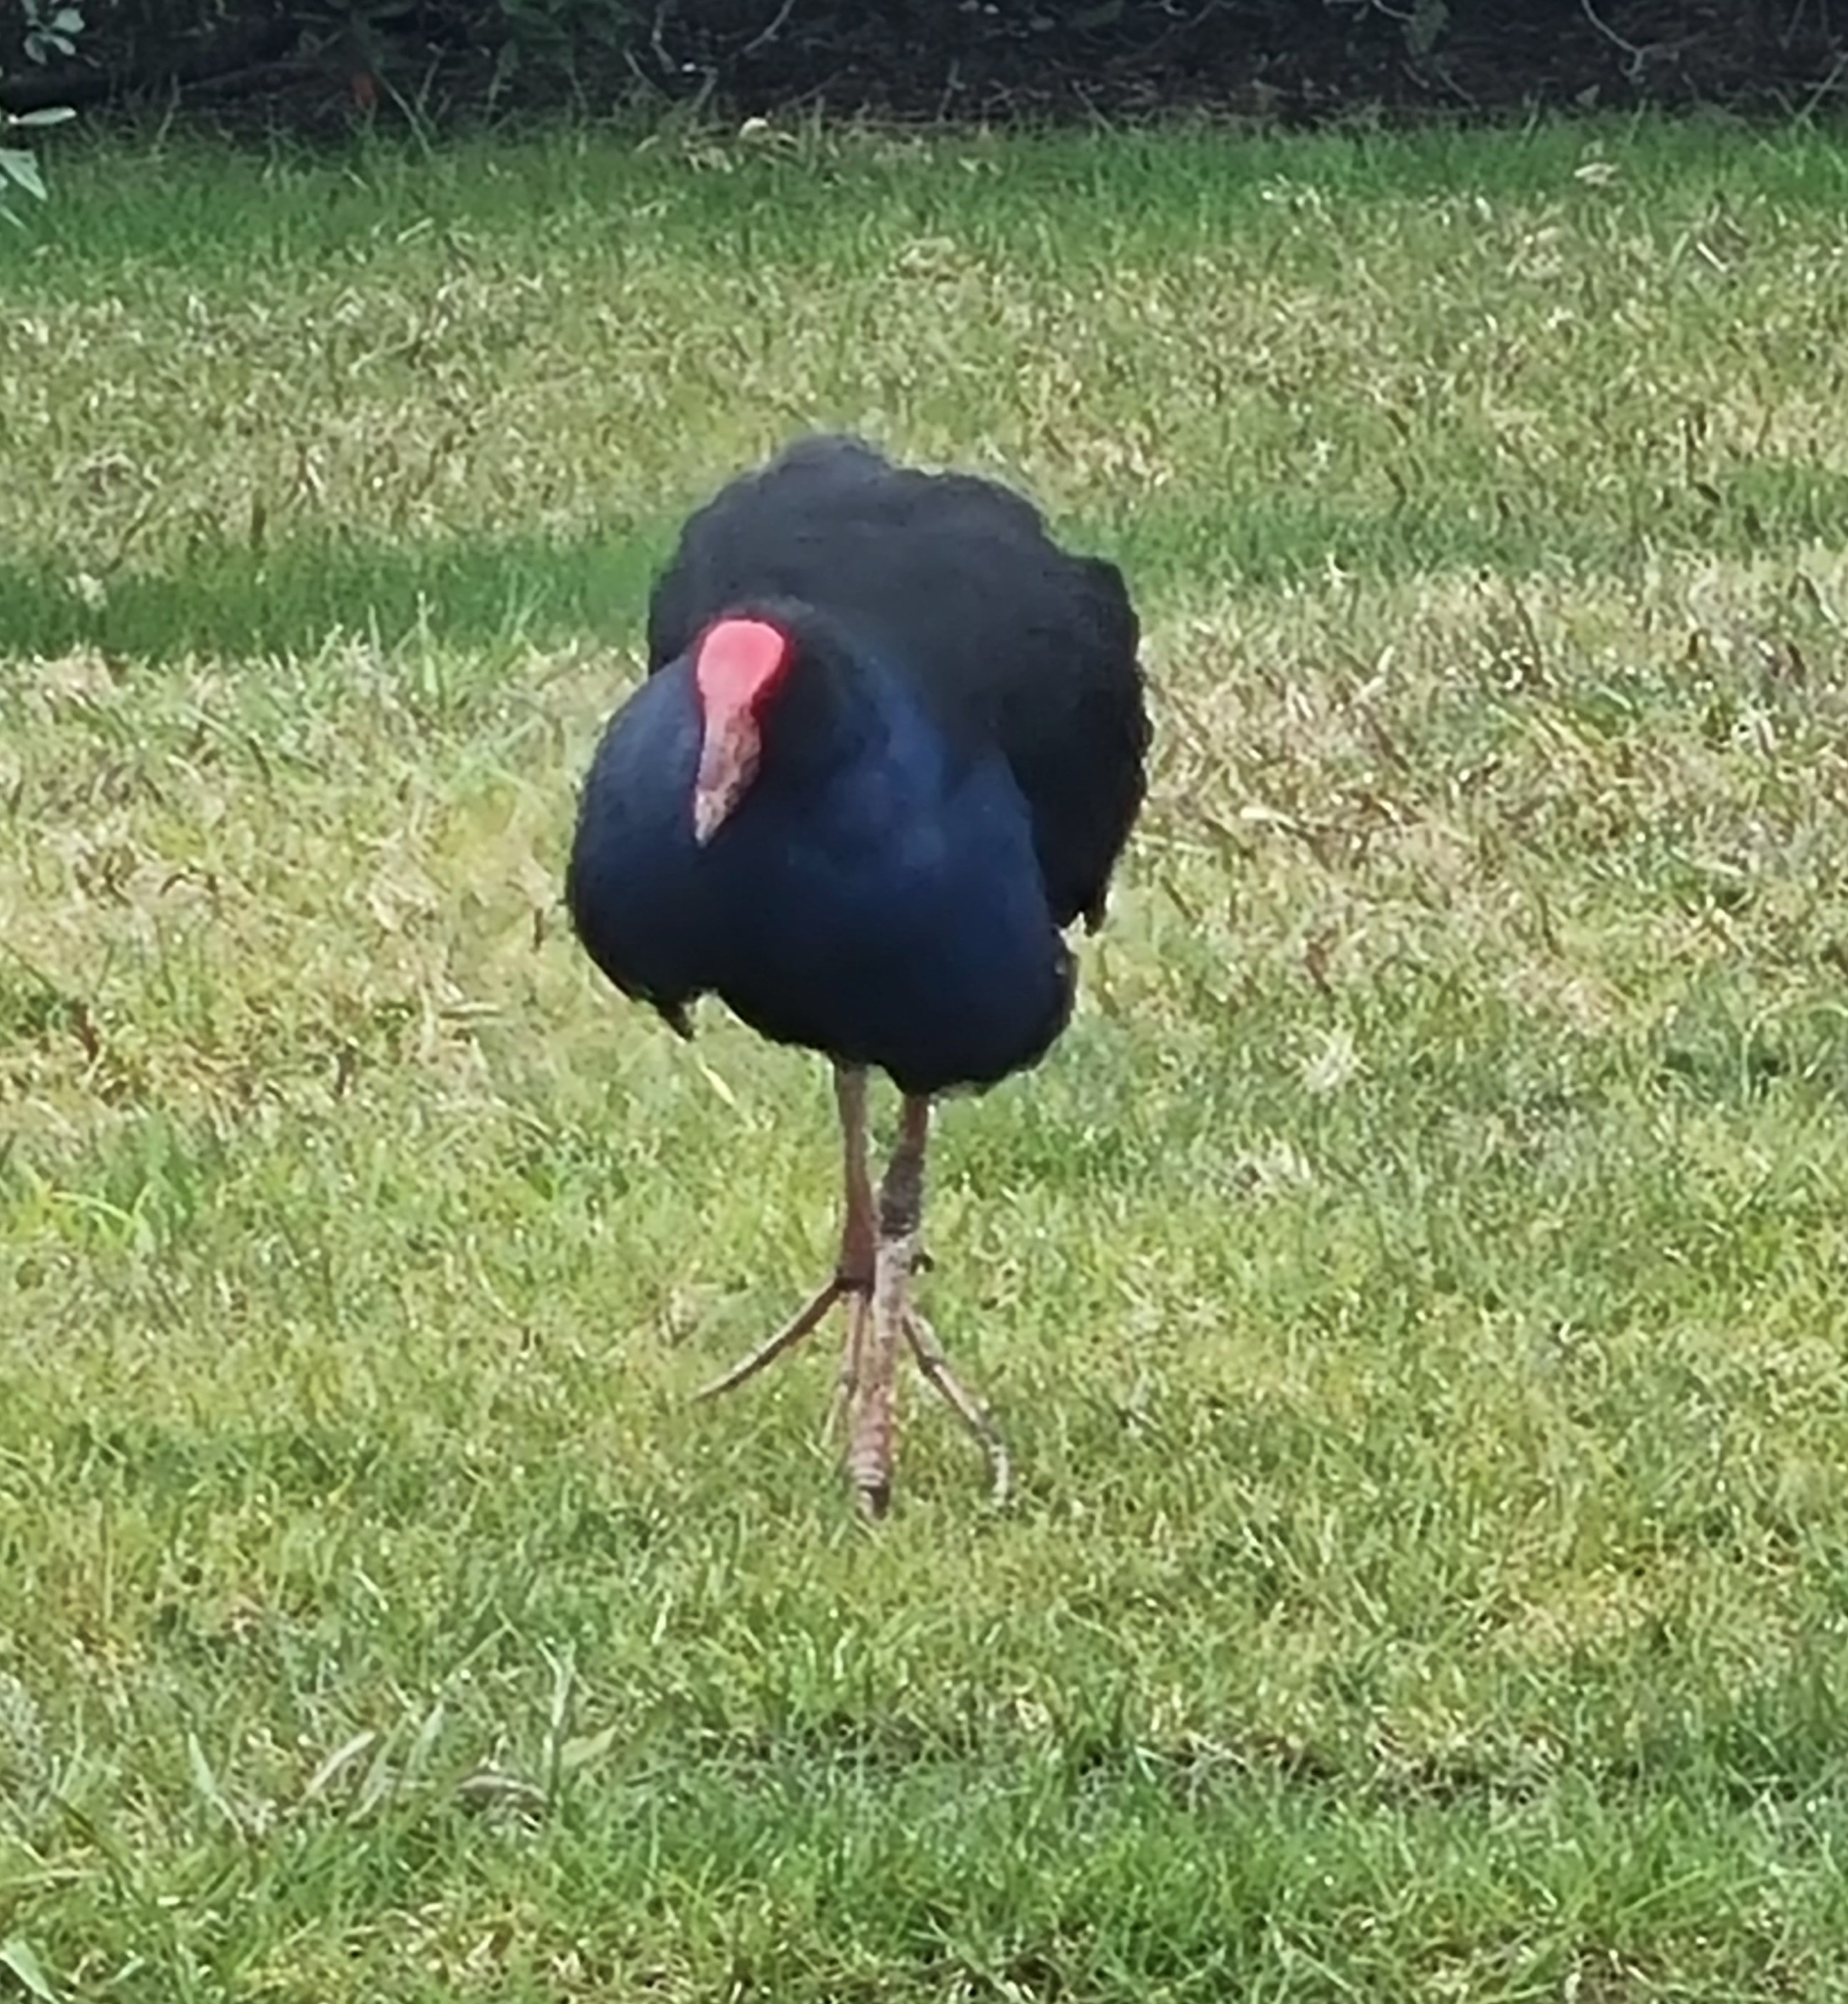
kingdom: Animalia
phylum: Chordata
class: Aves
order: Gruiformes
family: Rallidae
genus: Porphyrio
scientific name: Porphyrio melanotus
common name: Australasian swamphen
